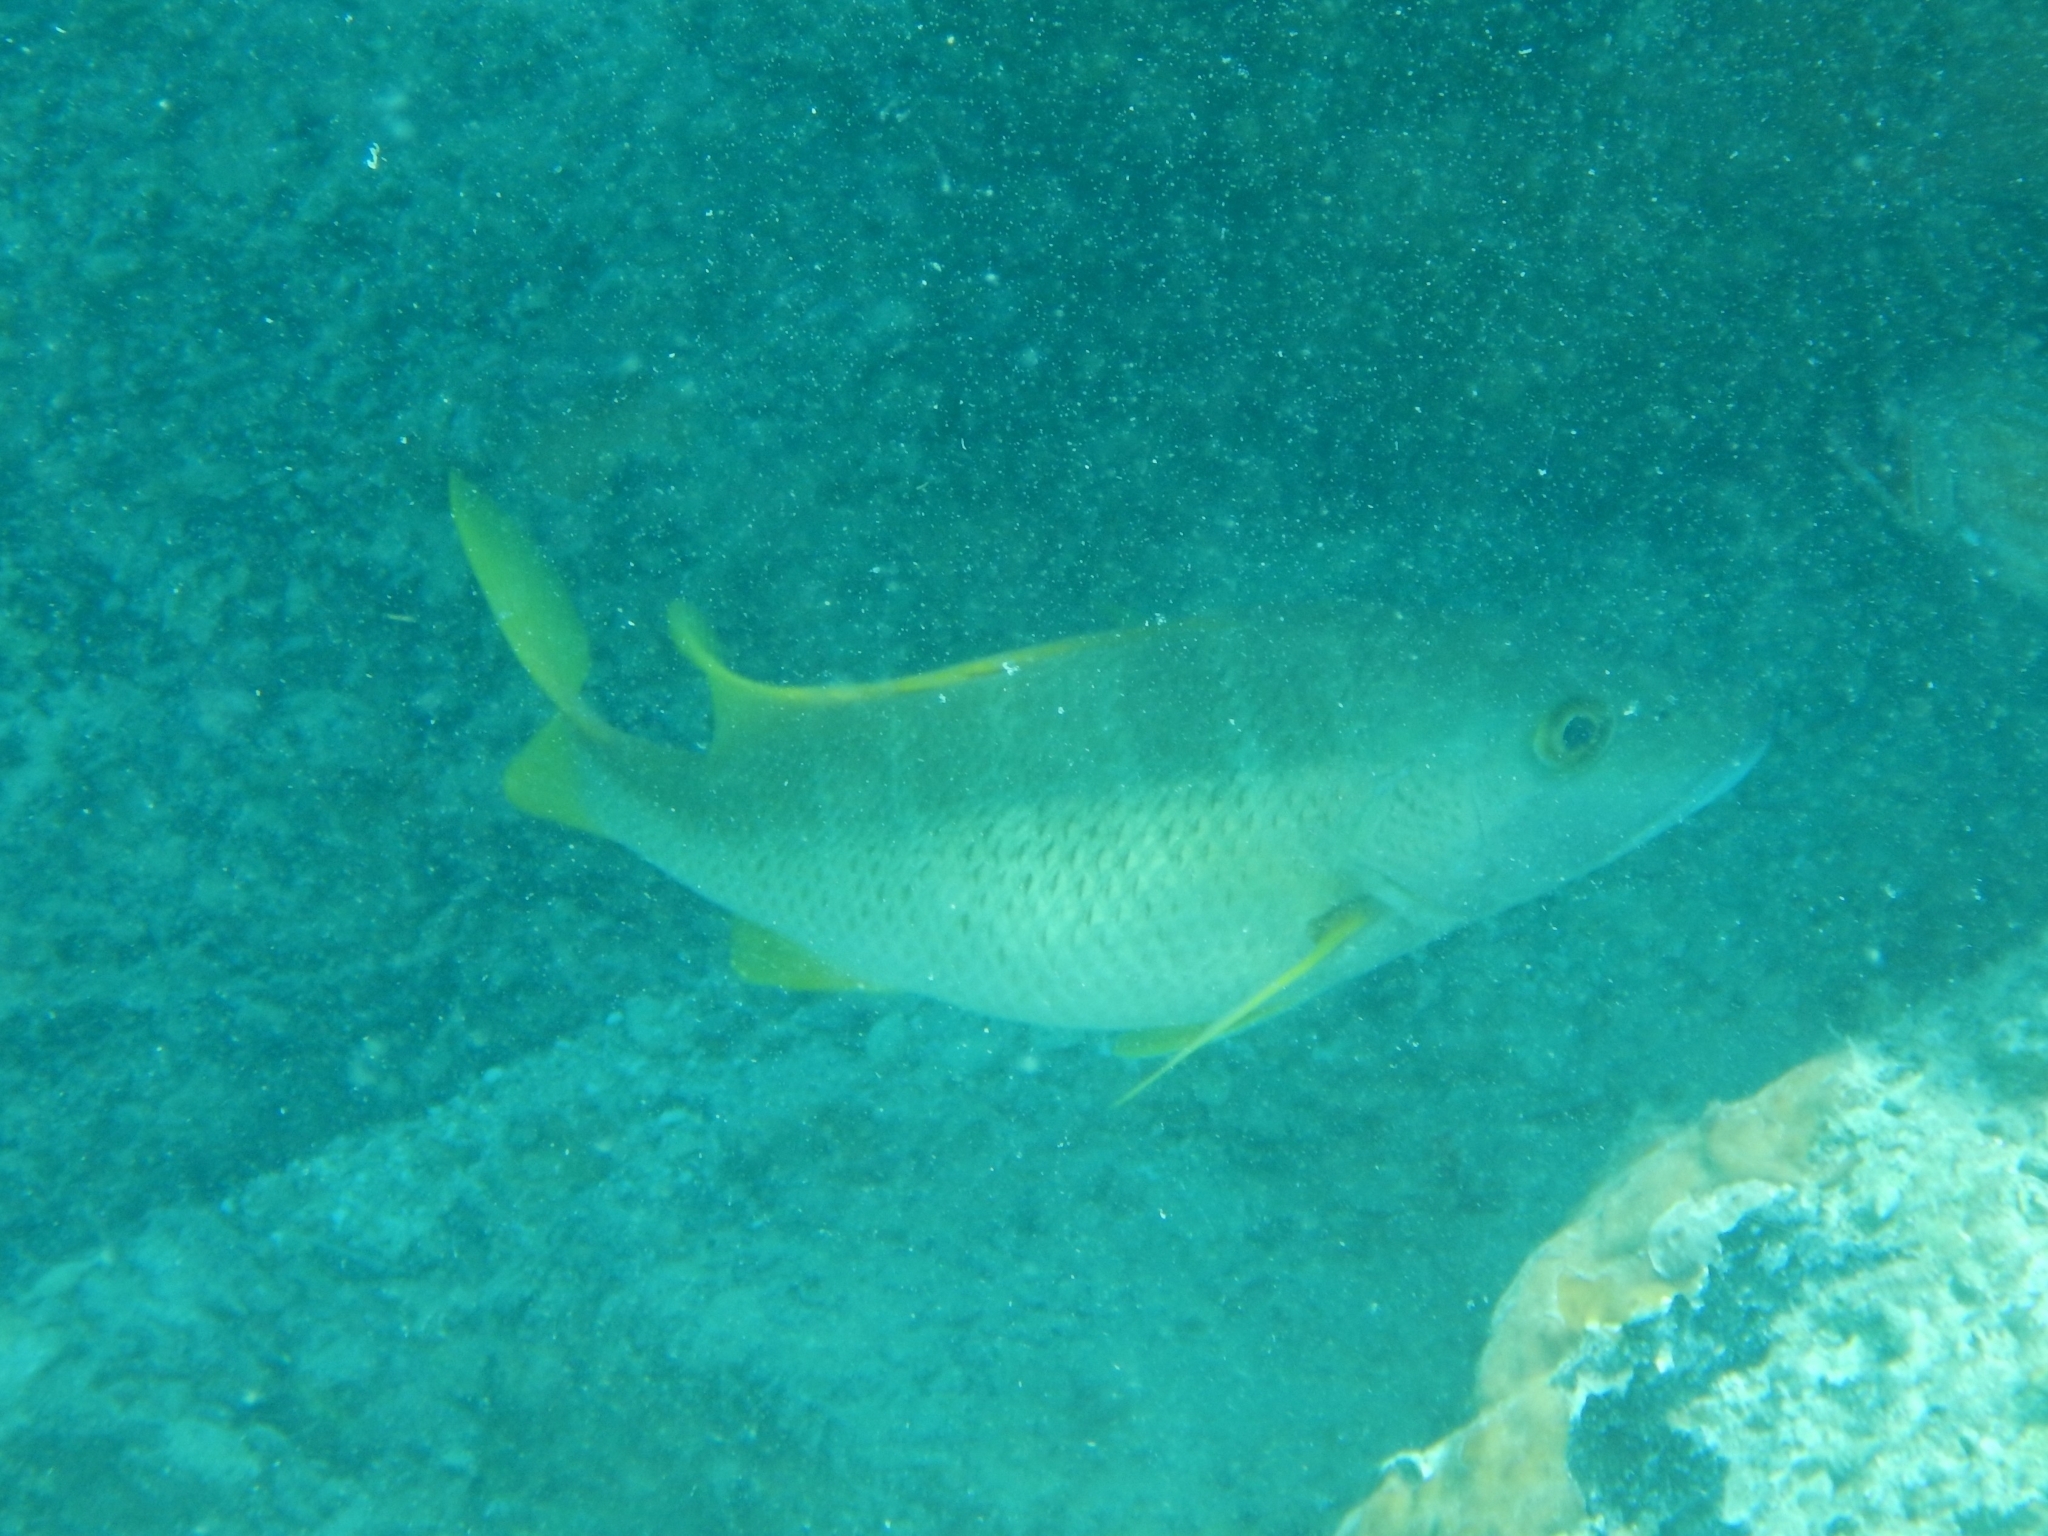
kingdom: Animalia
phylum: Chordata
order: Perciformes
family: Lutjanidae
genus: Lutjanus
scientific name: Lutjanus apodus
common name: Schoolmaster
